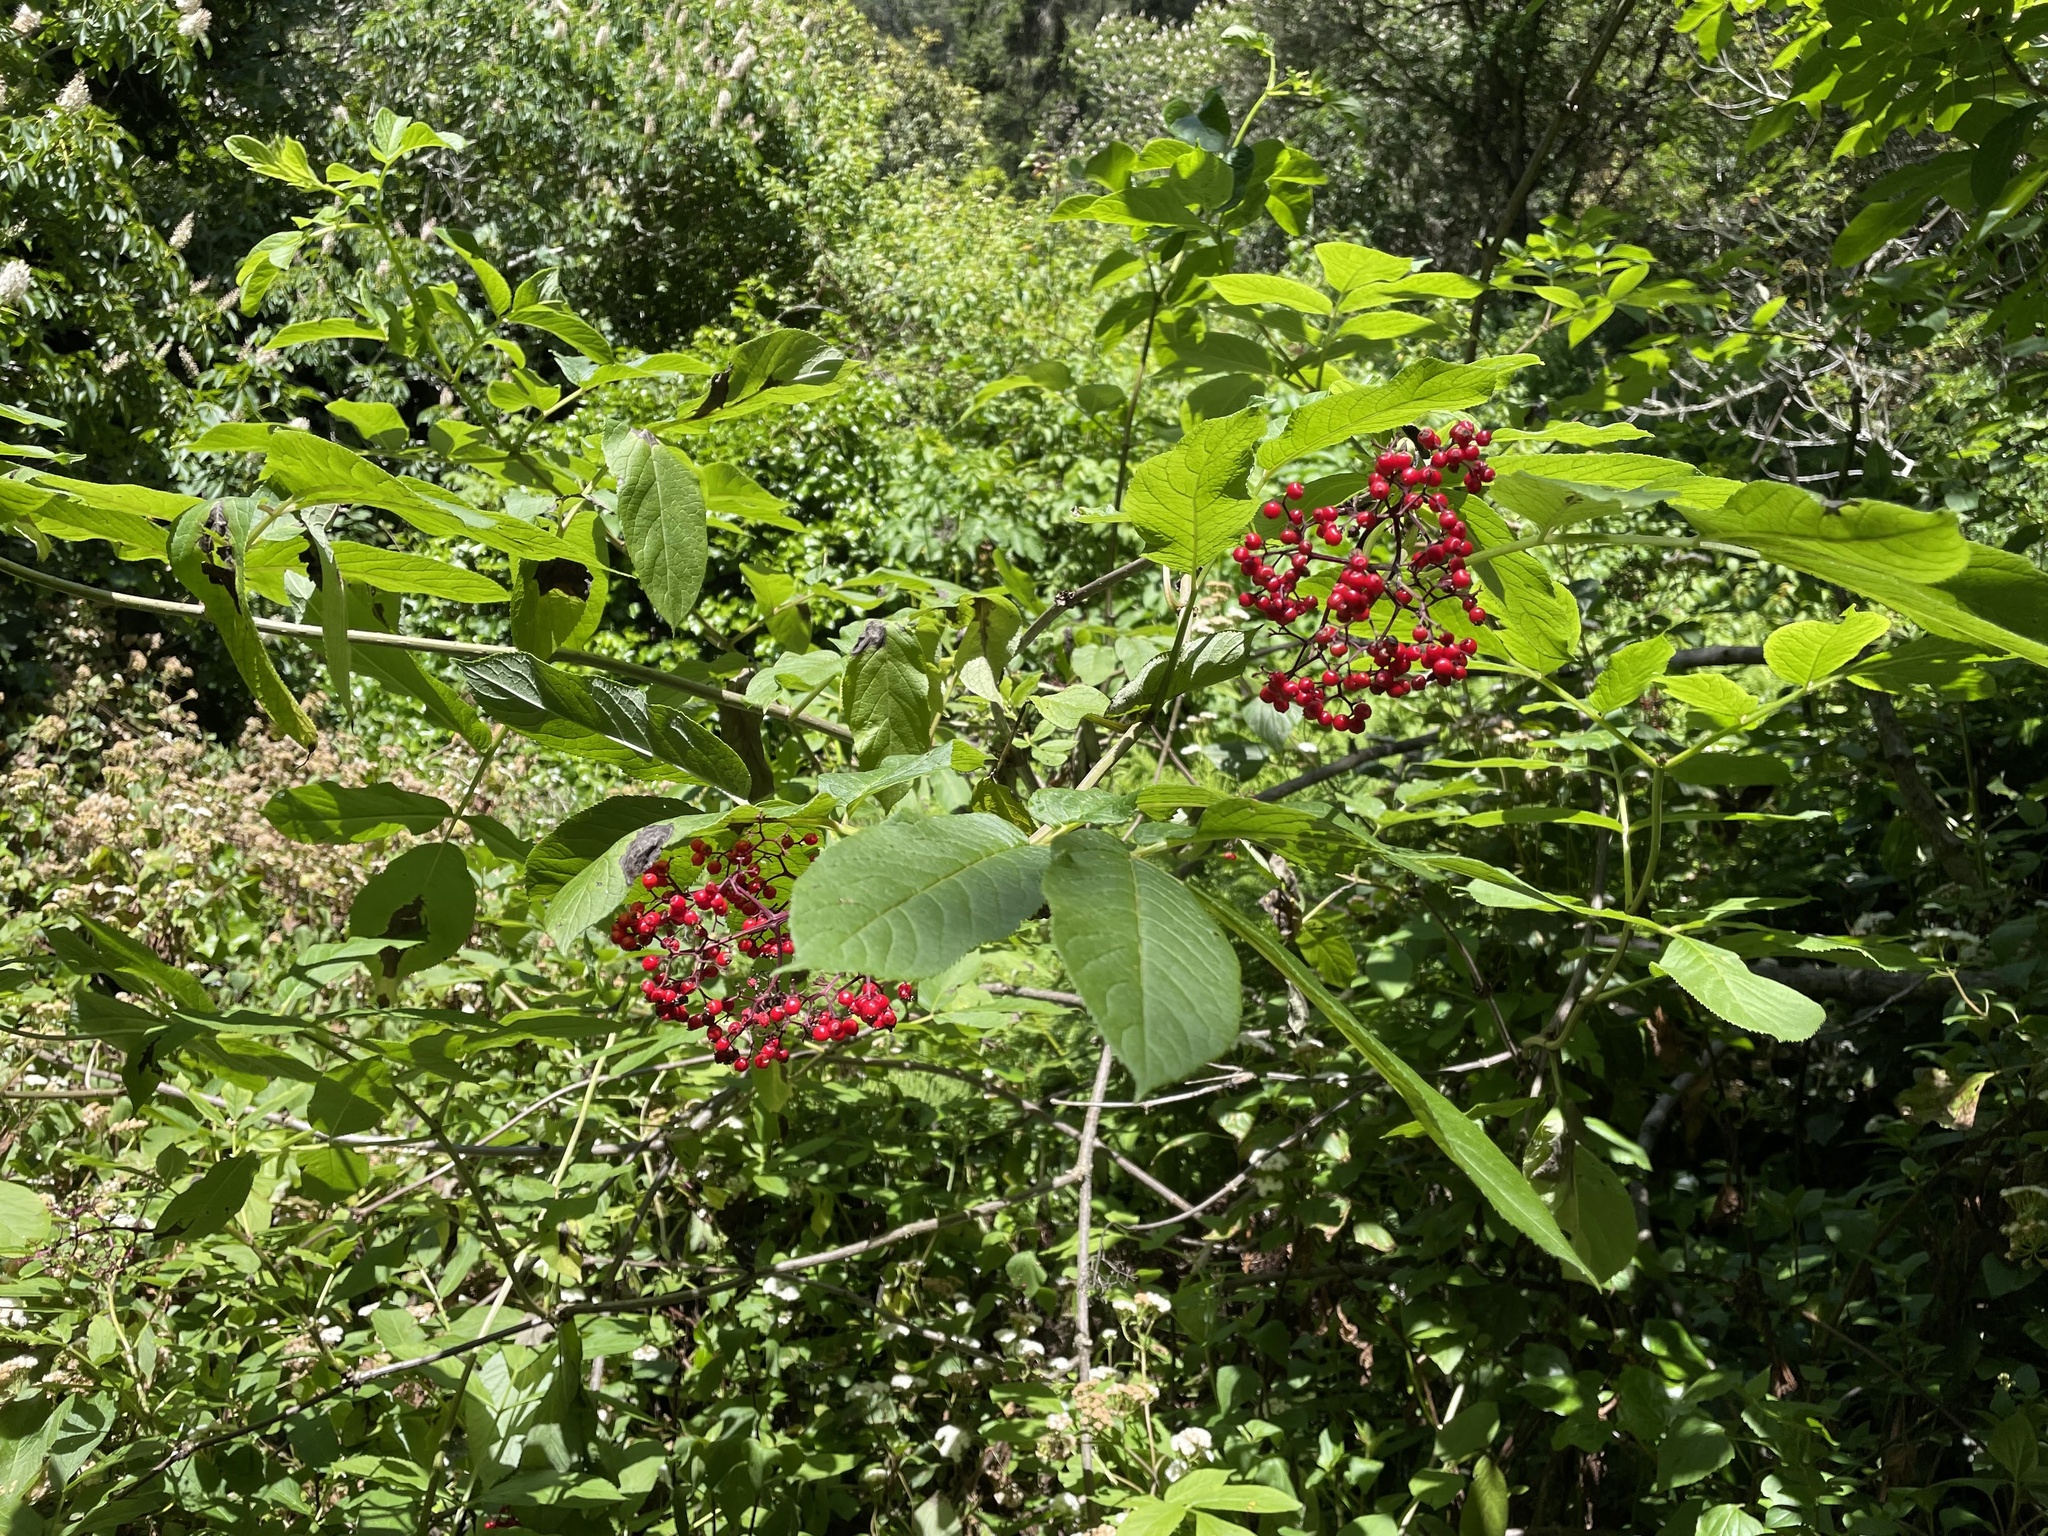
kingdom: Plantae
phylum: Tracheophyta
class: Magnoliopsida
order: Dipsacales
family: Viburnaceae
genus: Sambucus
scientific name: Sambucus racemosa
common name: Red-berried elder
